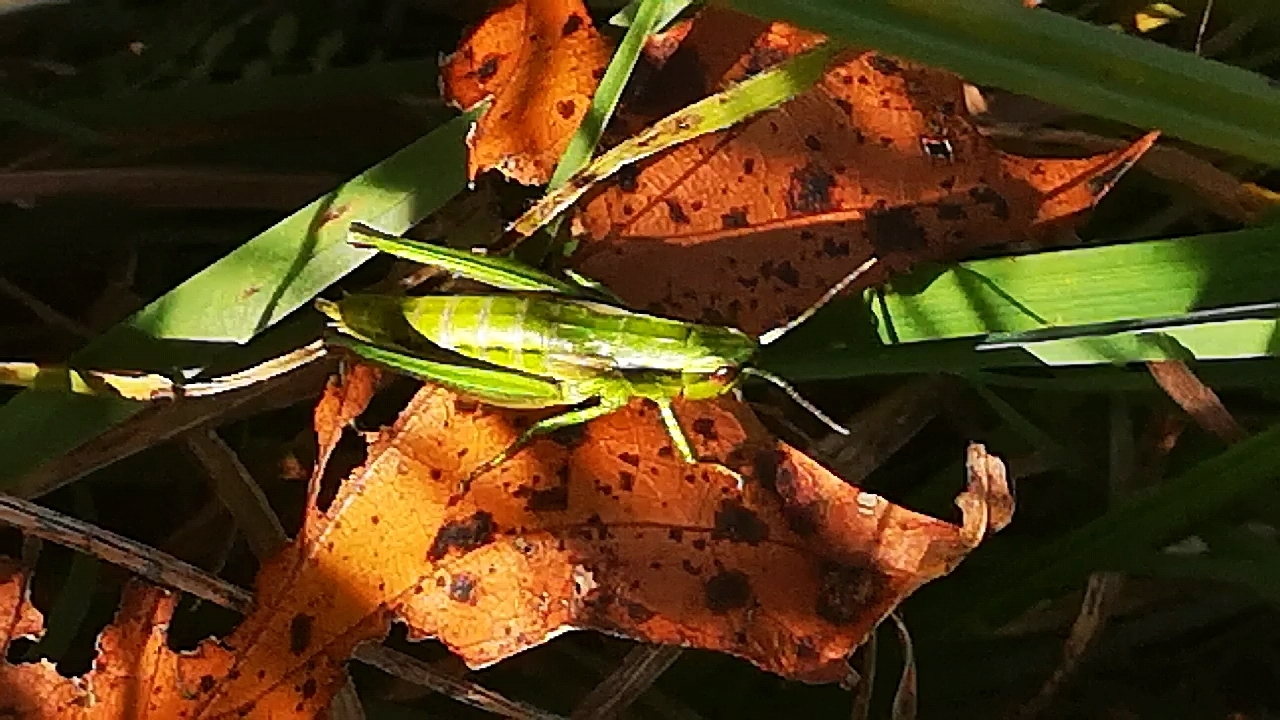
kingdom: Animalia
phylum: Arthropoda
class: Insecta
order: Orthoptera
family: Acrididae
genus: Euthystira
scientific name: Euthystira brachyptera
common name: Small gold grasshopper
